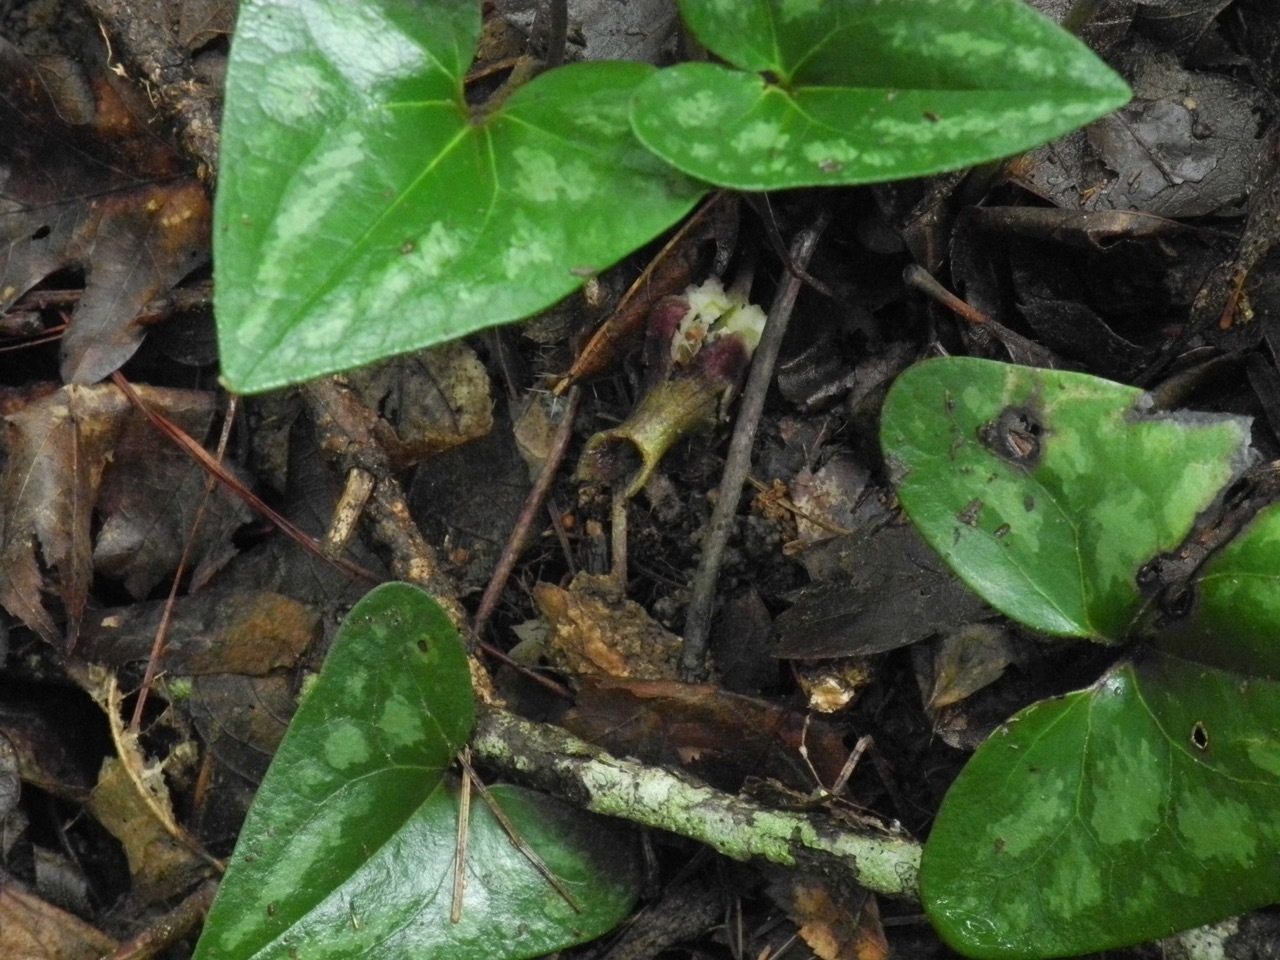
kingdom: Plantae
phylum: Tracheophyta
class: Magnoliopsida
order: Piperales
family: Aristolochiaceae
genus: Hexastylis
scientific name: Hexastylis arifolia
